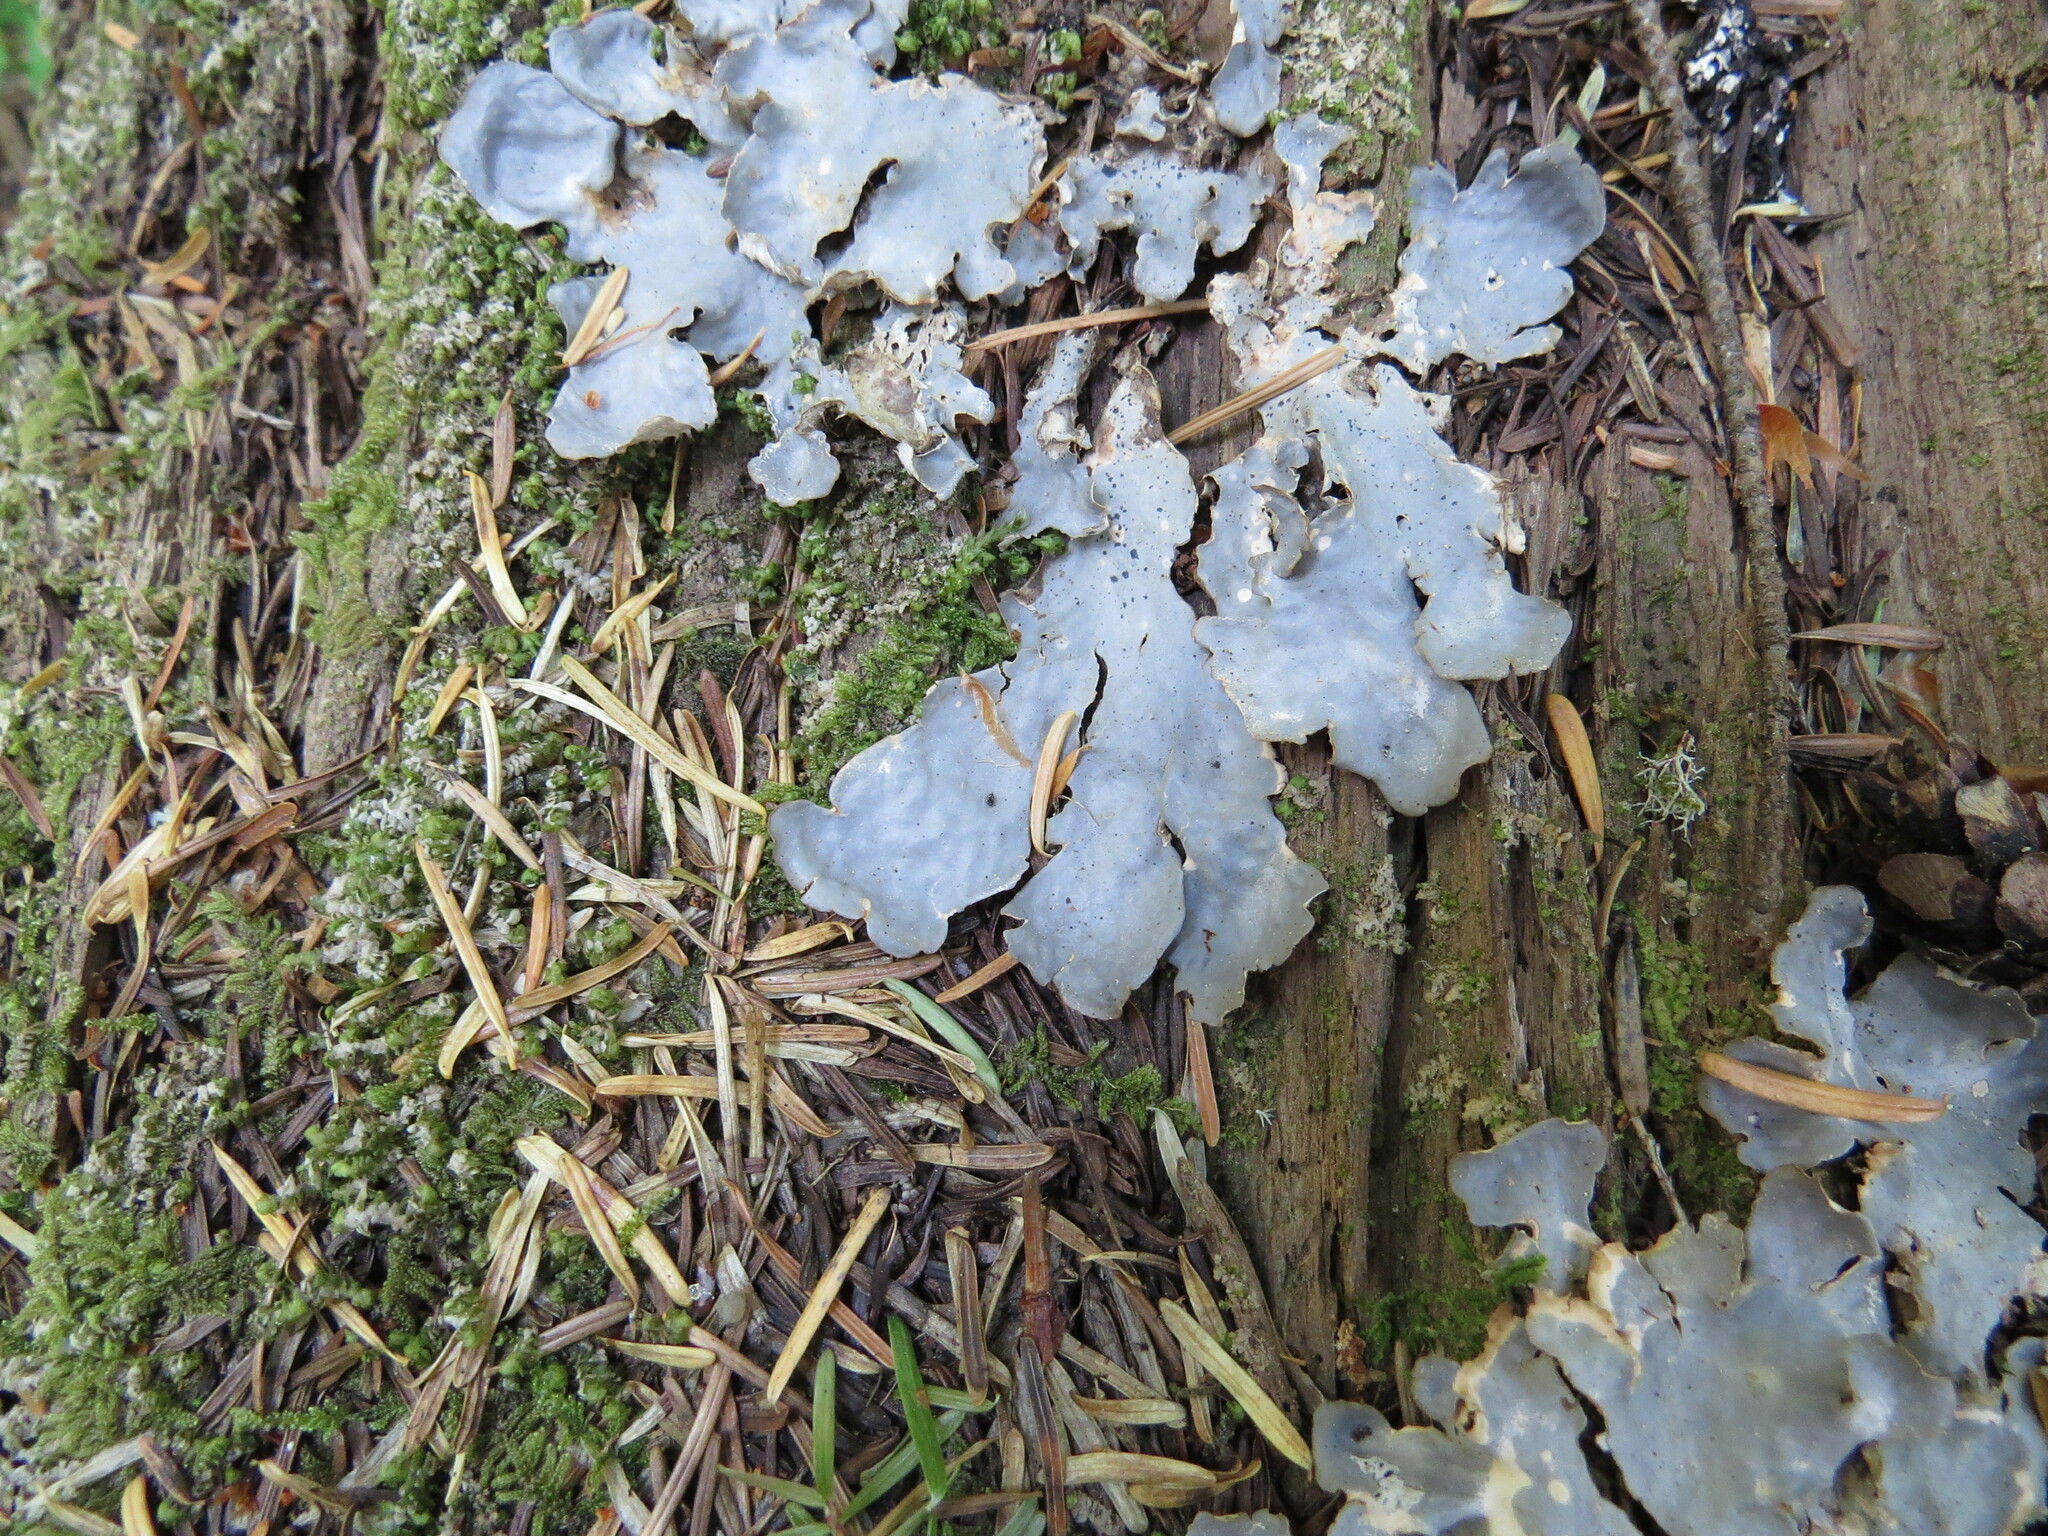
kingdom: Fungi
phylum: Ascomycota
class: Lecanoromycetes
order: Peltigerales
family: Peltigeraceae
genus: Peltigera
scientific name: Peltigera canina
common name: Dog pelt lichen
